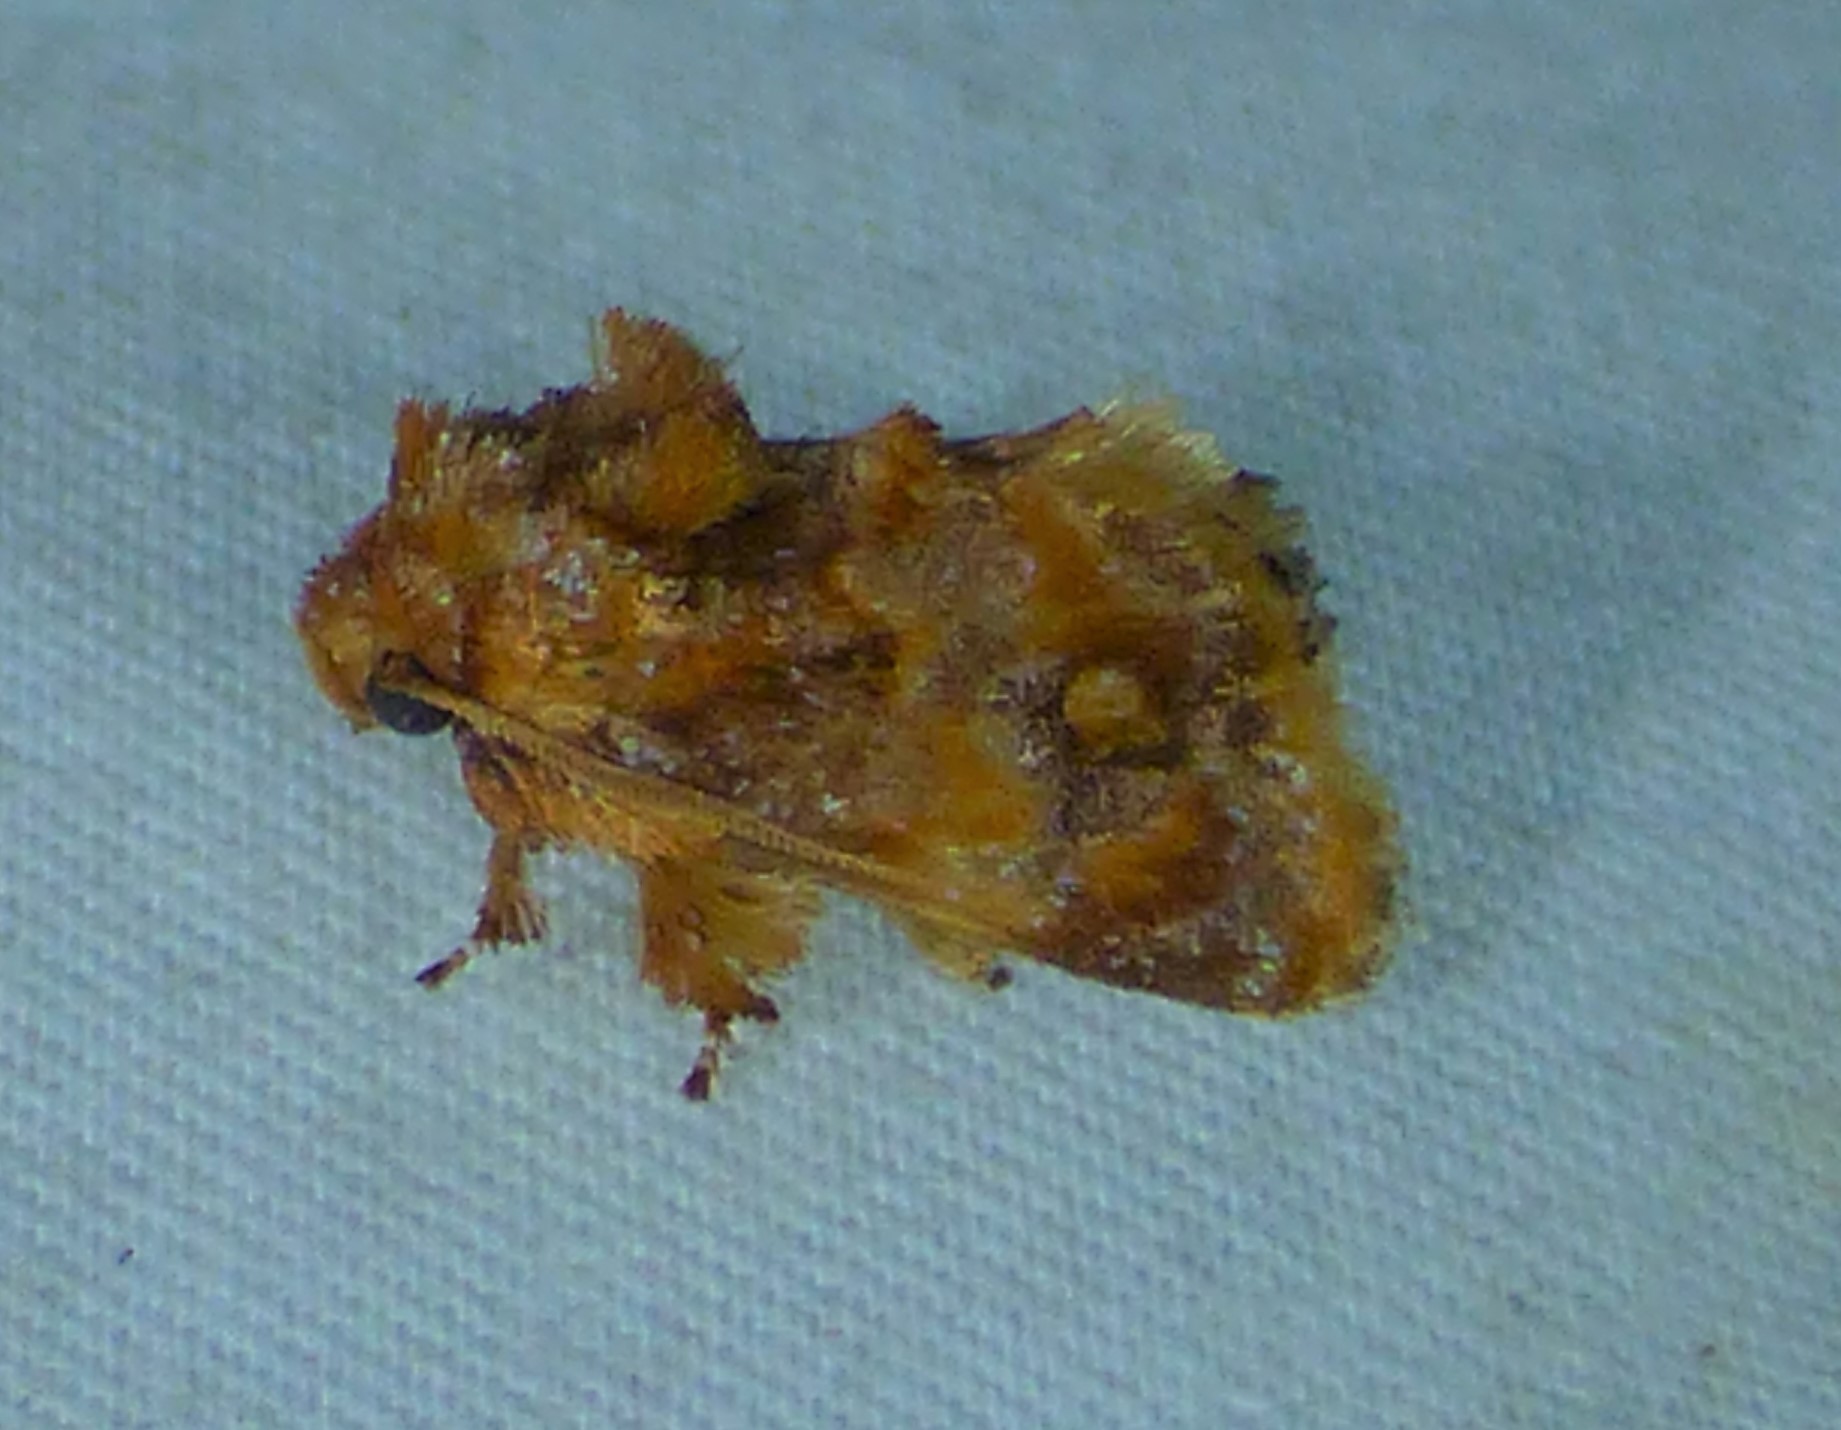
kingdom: Animalia
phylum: Arthropoda
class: Insecta
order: Lepidoptera
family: Limacodidae
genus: Isochaetes
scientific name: Isochaetes beutenmuelleri
